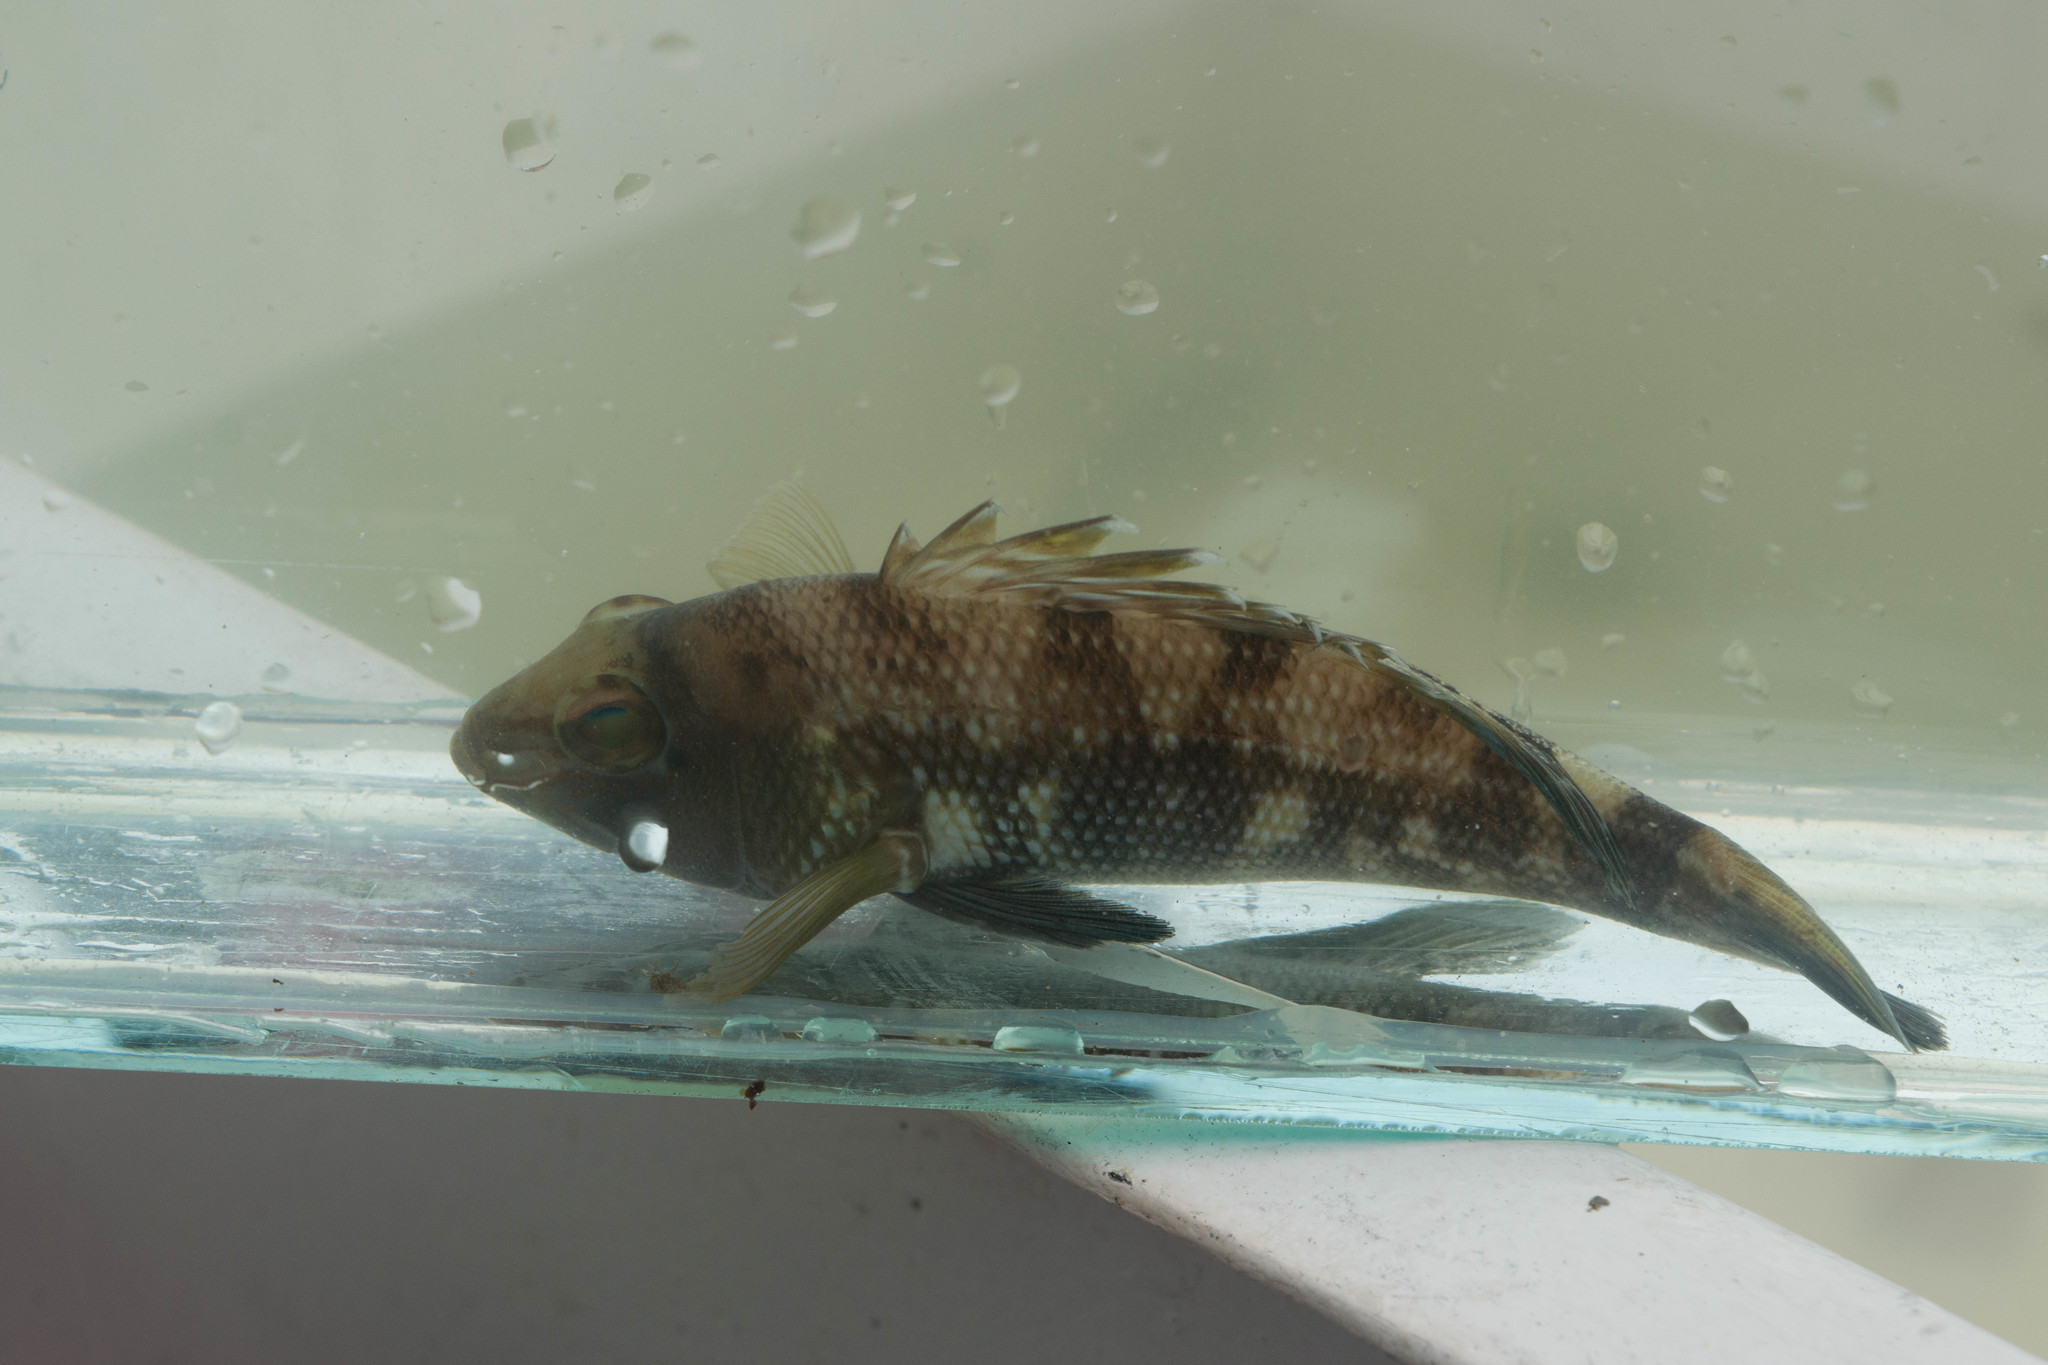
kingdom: Animalia
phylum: Chordata
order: Perciformes
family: Serranidae
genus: Centropristis
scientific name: Centropristis striata
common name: Black sea bass
